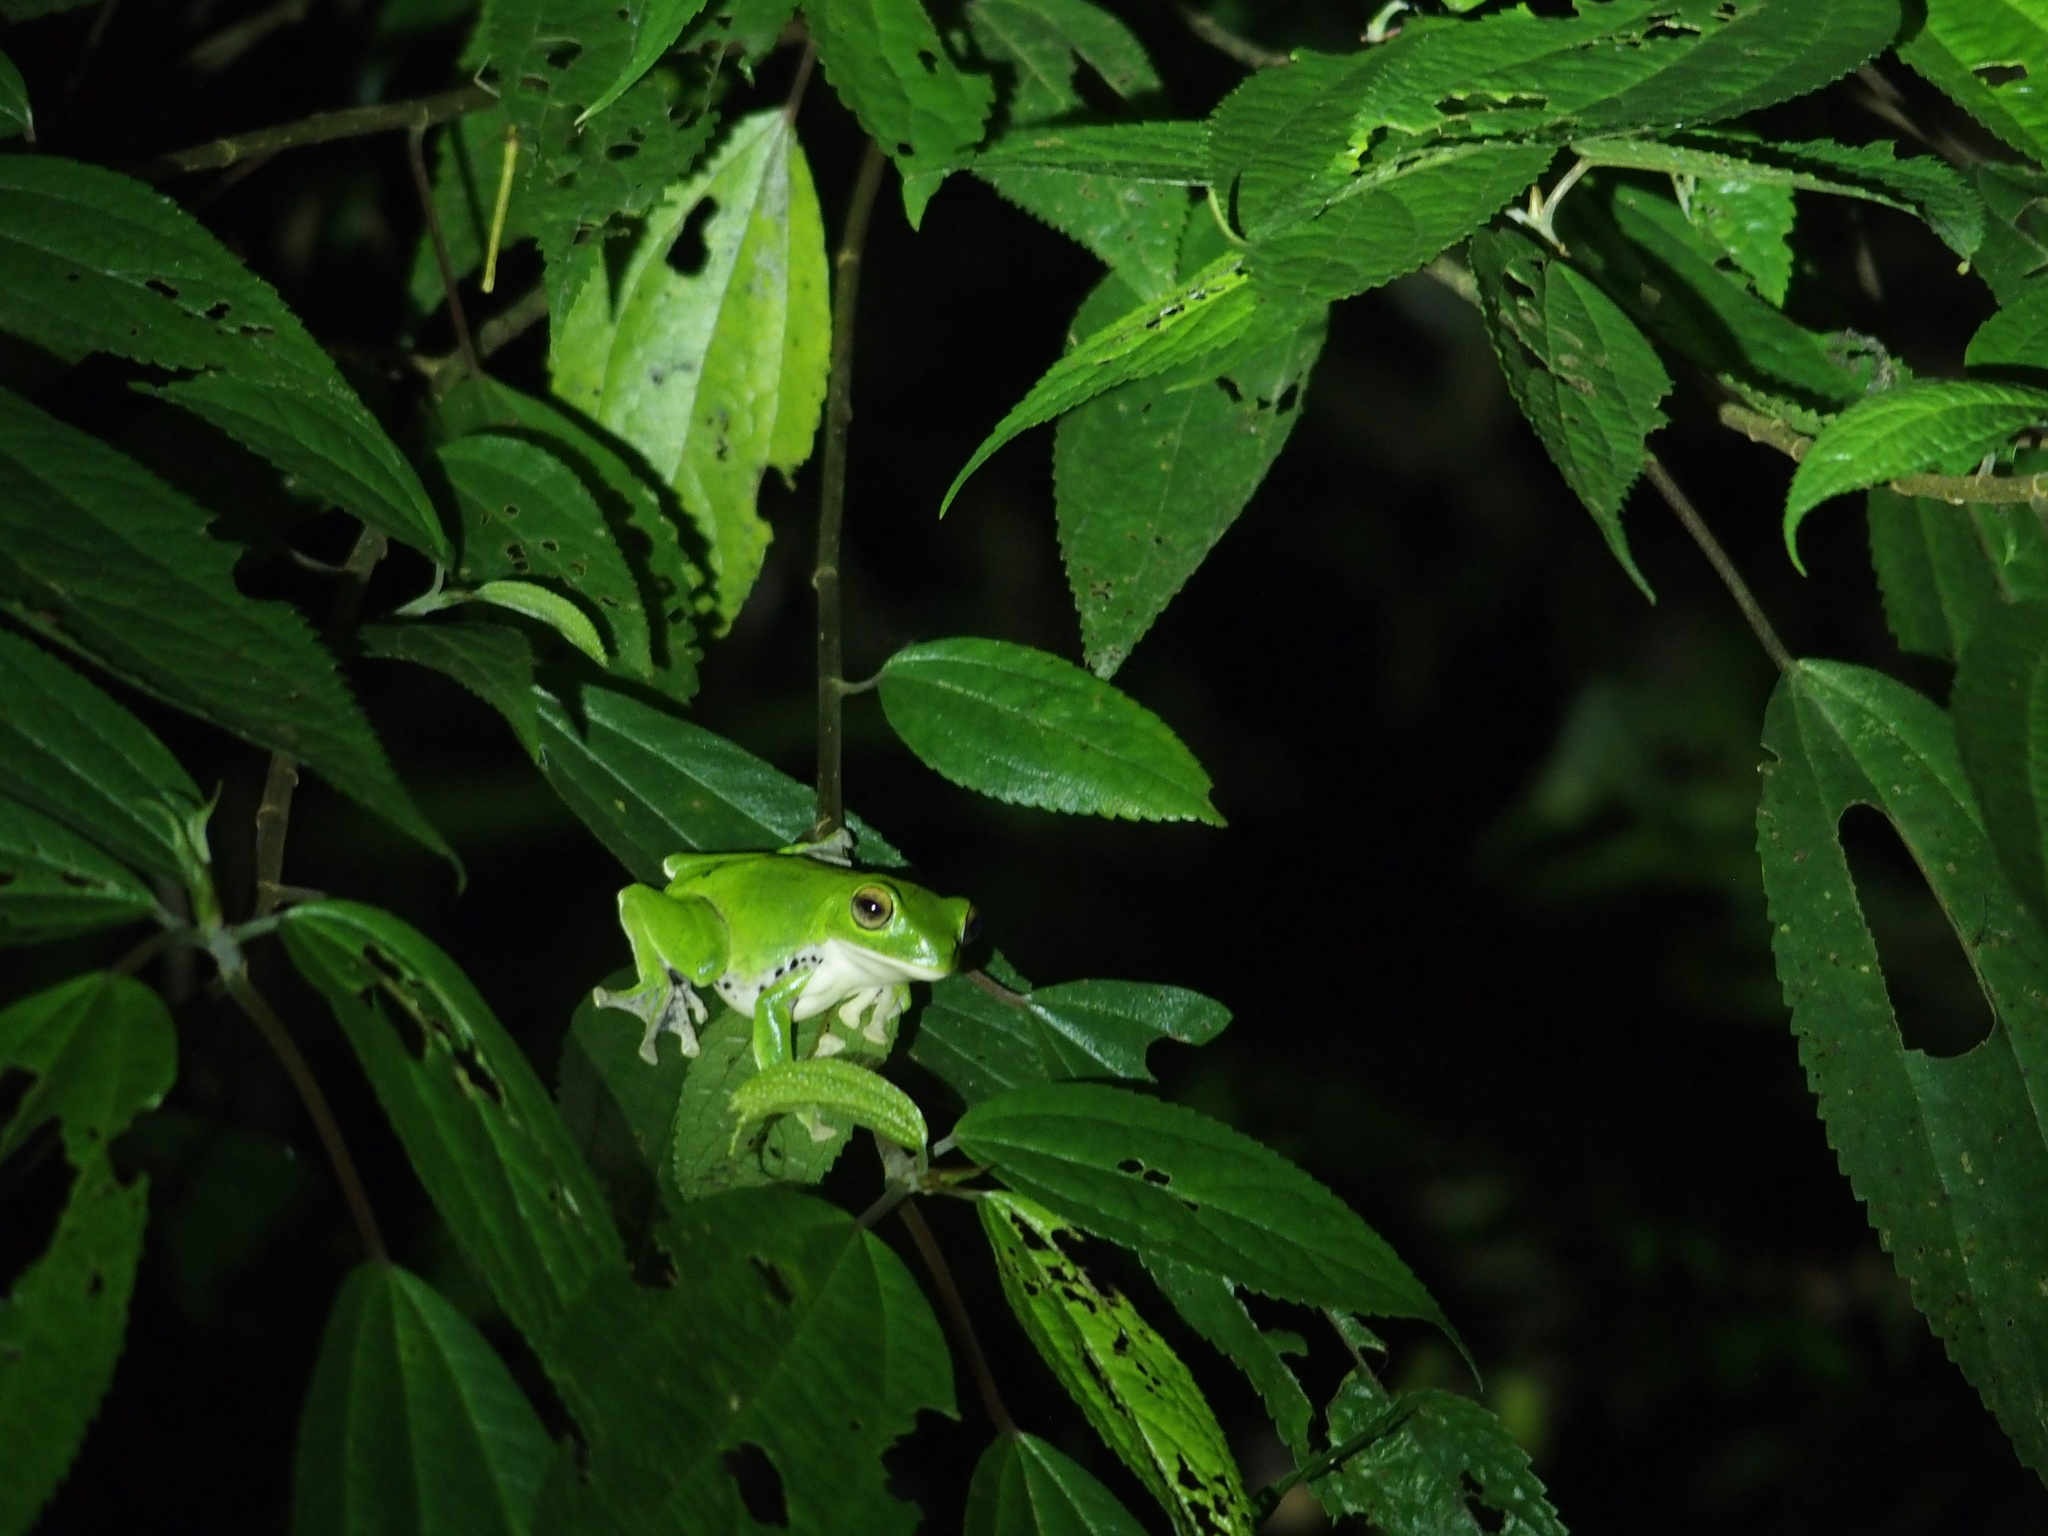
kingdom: Animalia
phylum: Chordata
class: Amphibia
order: Anura
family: Rhacophoridae
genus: Zhangixalus
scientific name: Zhangixalus moltrechti
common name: Moltrecht's treefrog
